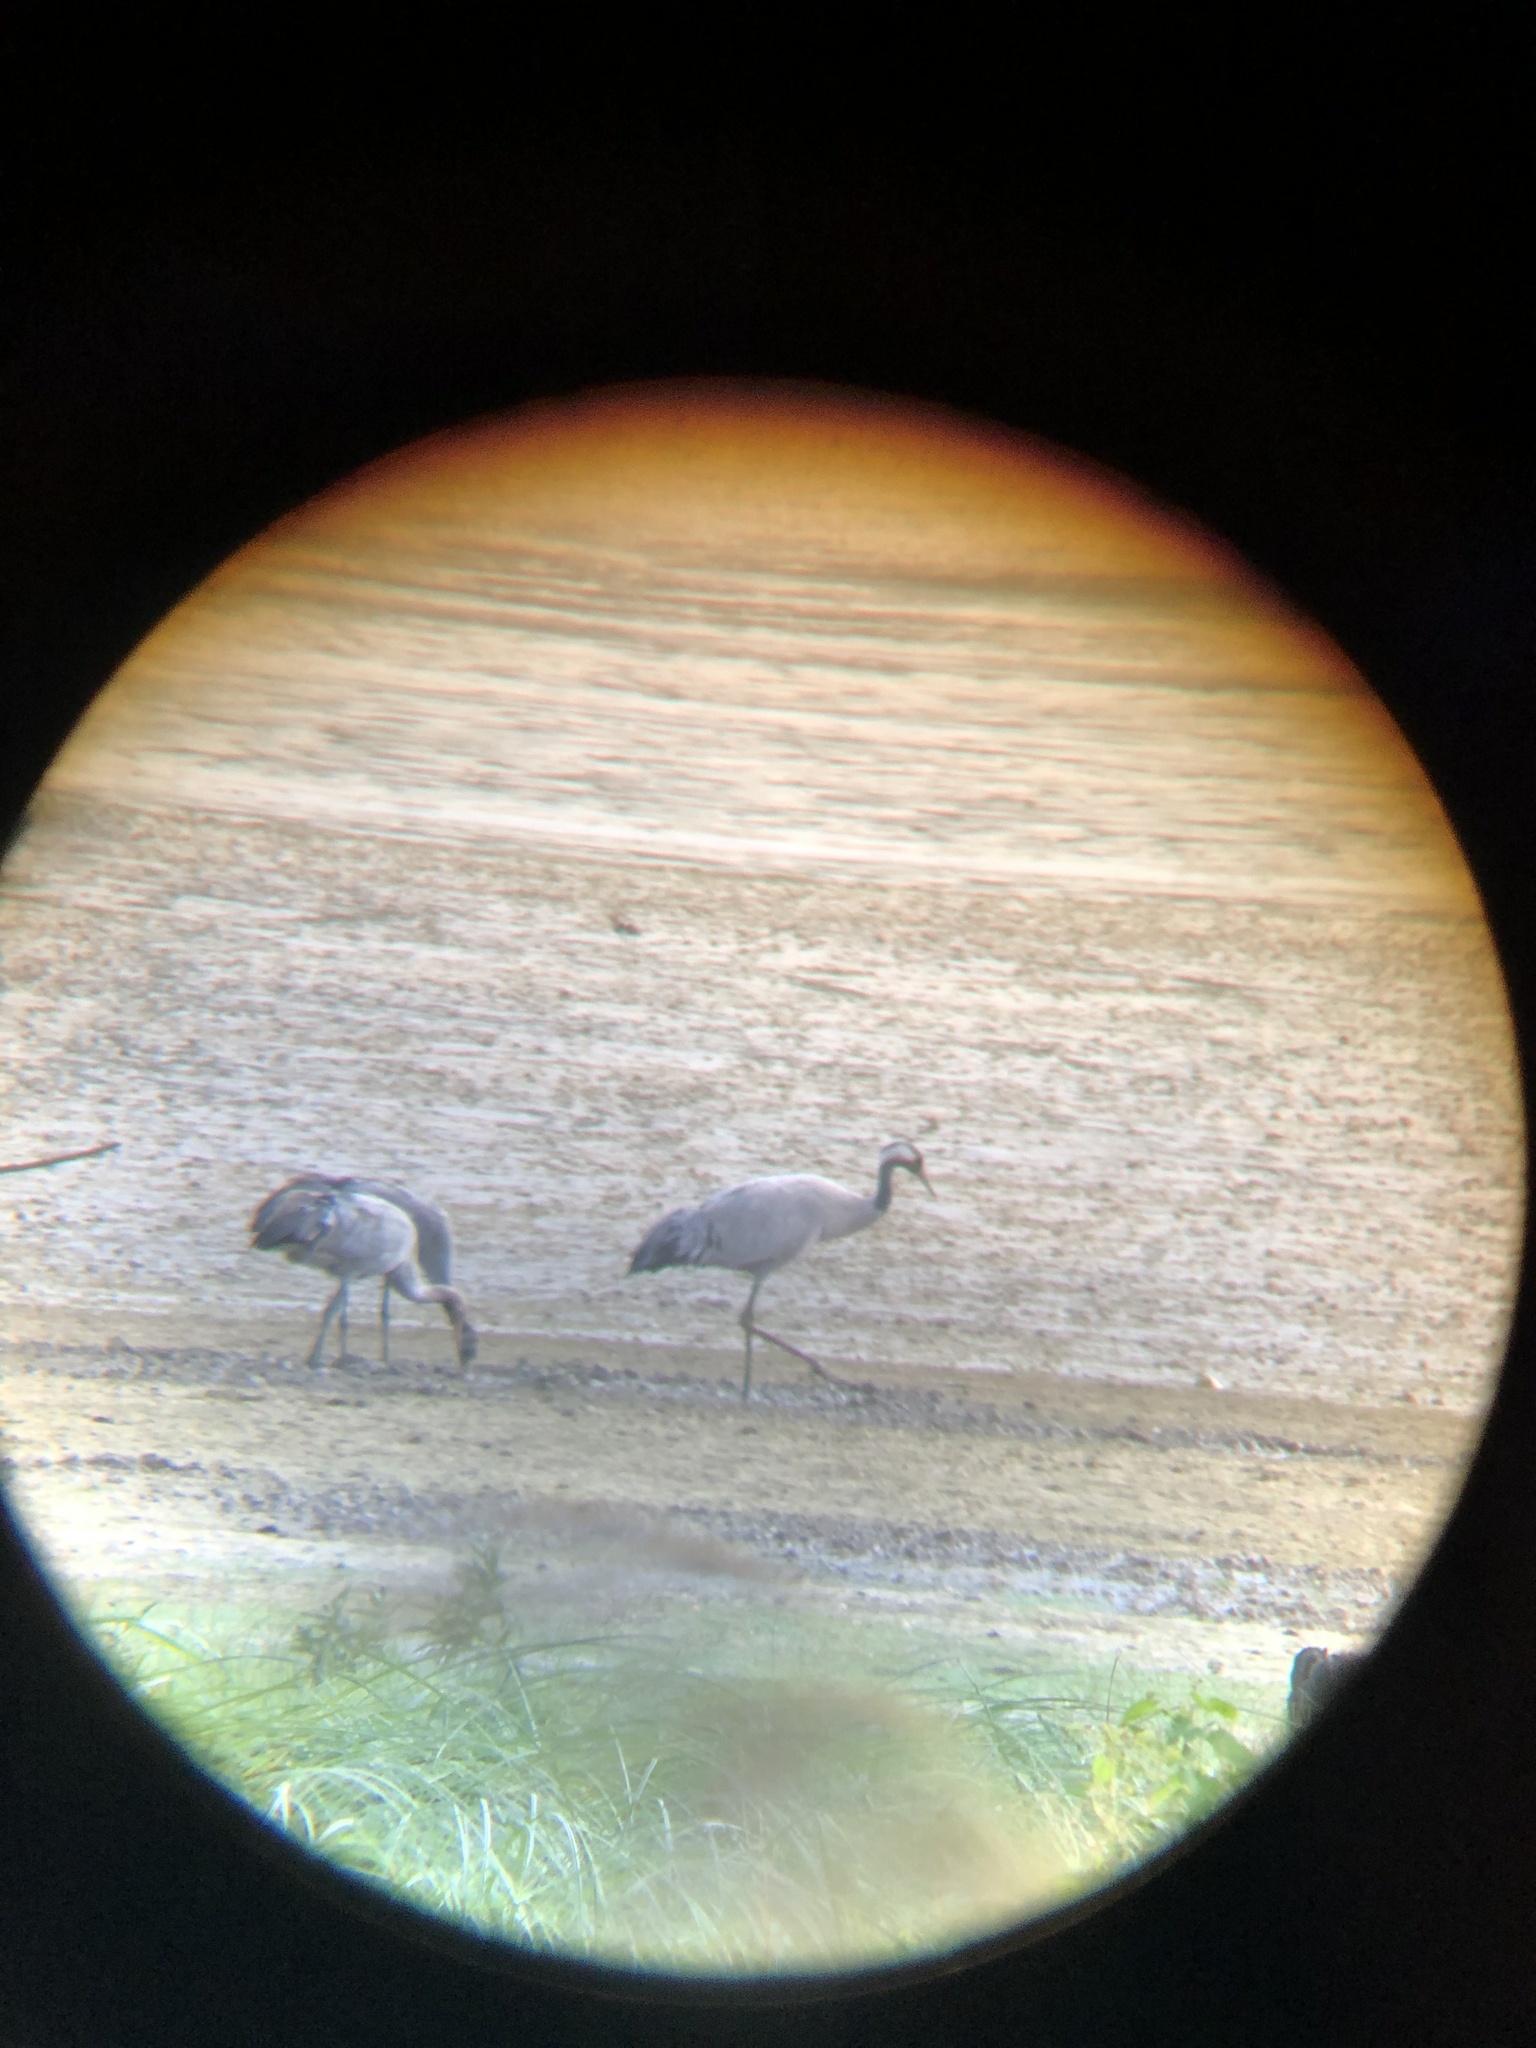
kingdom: Animalia
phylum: Chordata
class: Aves
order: Gruiformes
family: Gruidae
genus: Grus
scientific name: Grus grus
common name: Common crane
